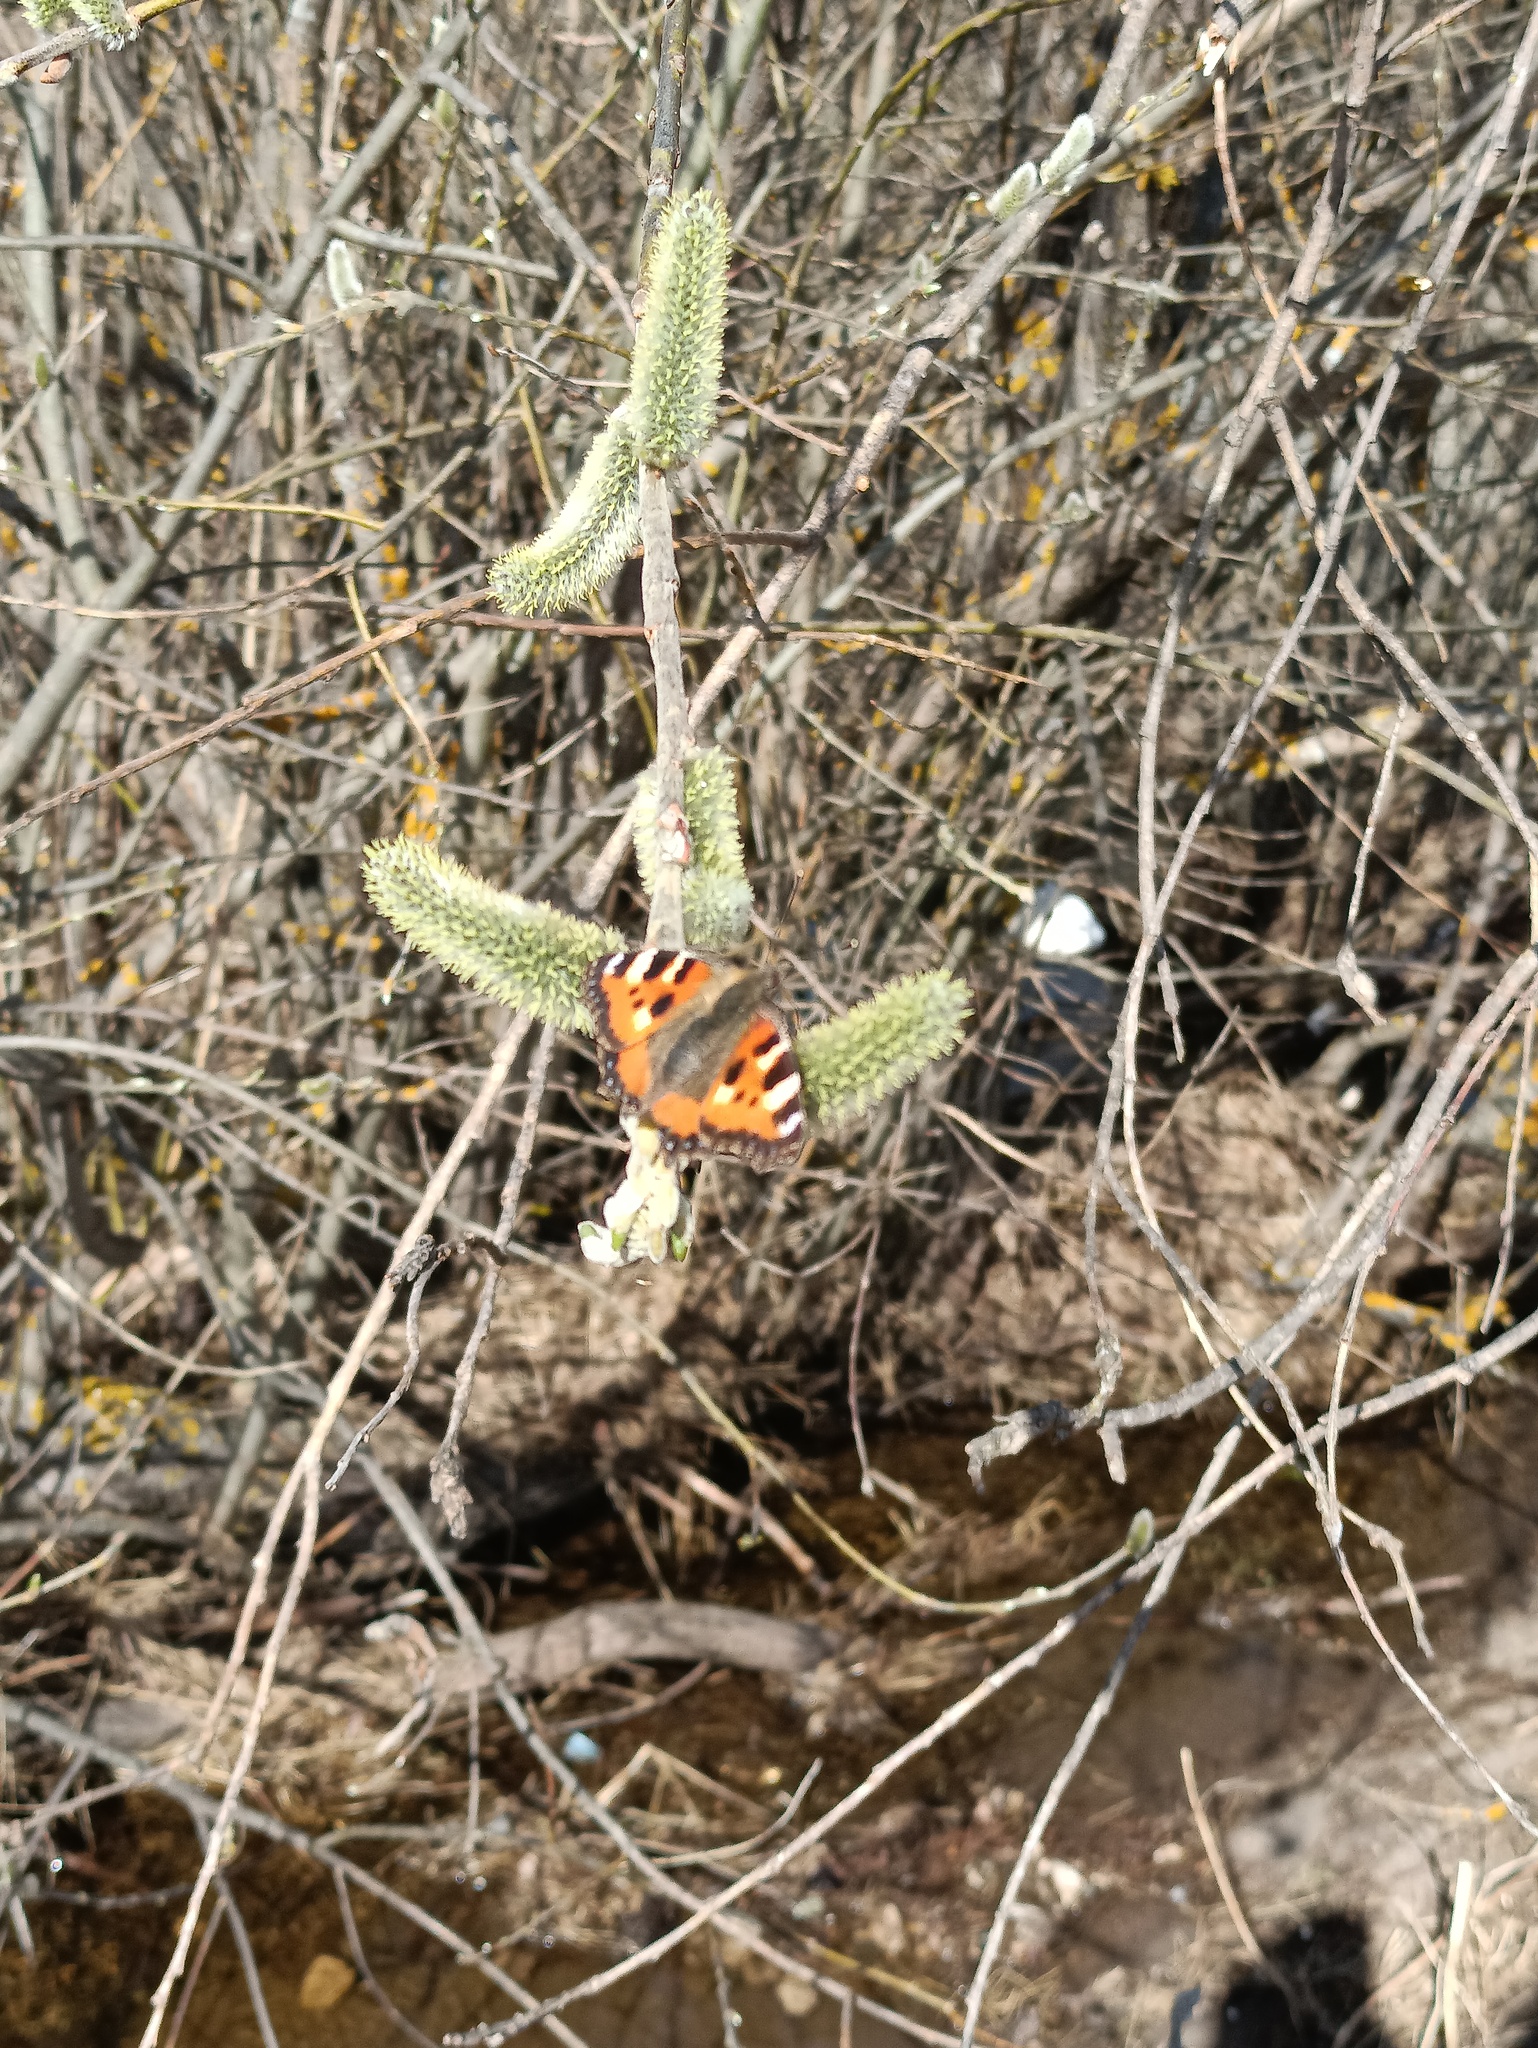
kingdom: Animalia
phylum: Arthropoda
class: Insecta
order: Lepidoptera
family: Nymphalidae
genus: Aglais
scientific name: Aglais urticae
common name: Small tortoiseshell
